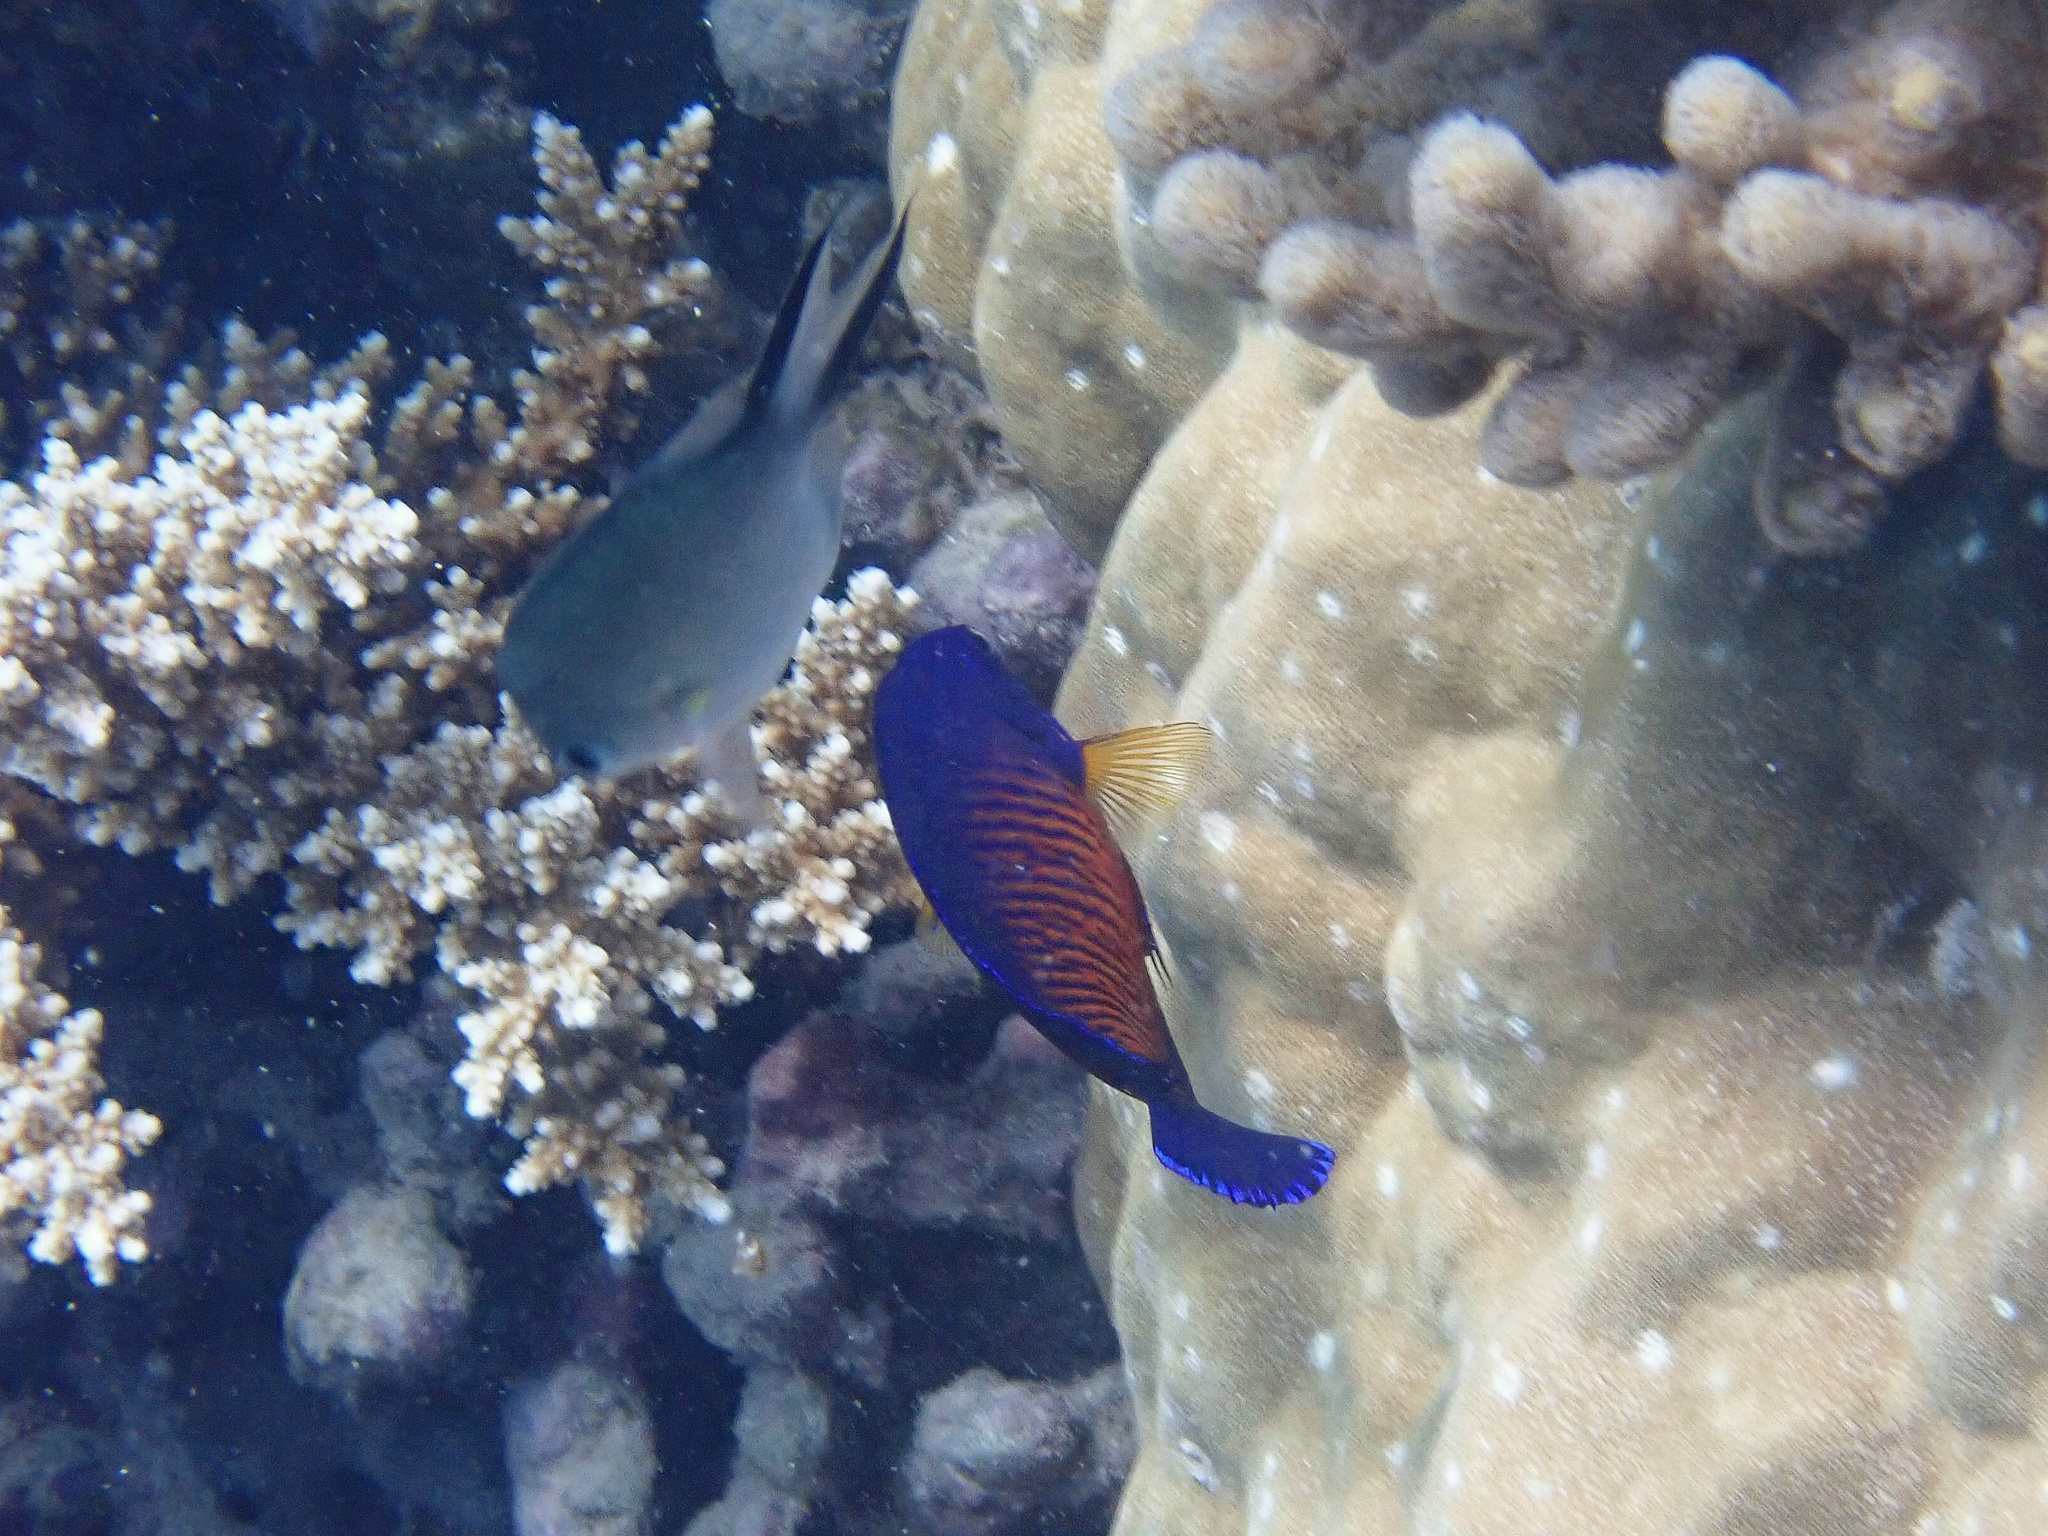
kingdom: Animalia
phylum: Chordata
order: Perciformes
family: Pomacanthidae
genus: Centropyge
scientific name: Centropyge bispinosa
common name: Coral beauty
